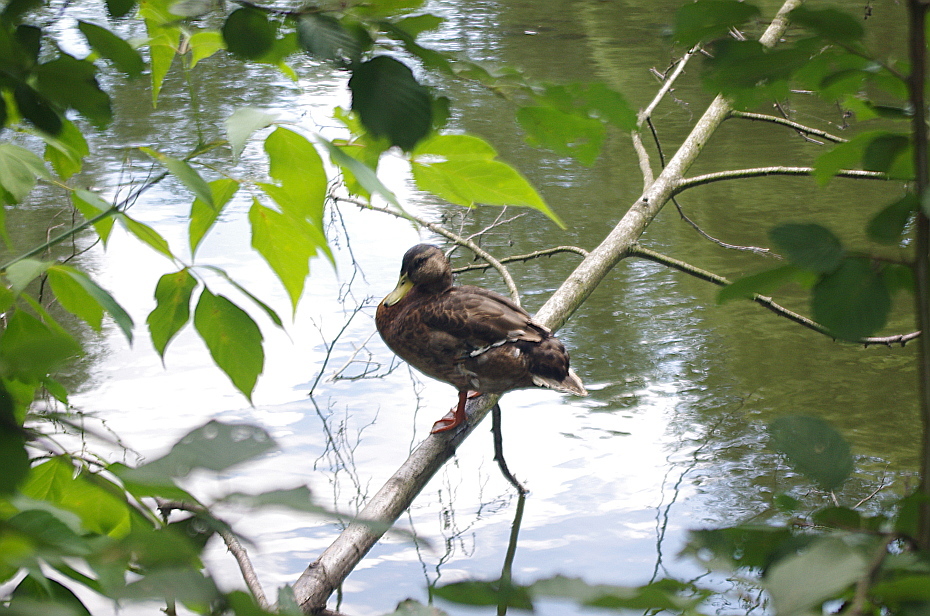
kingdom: Animalia
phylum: Chordata
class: Aves
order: Anseriformes
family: Anatidae
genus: Anas
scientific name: Anas platyrhynchos
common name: Mallard
